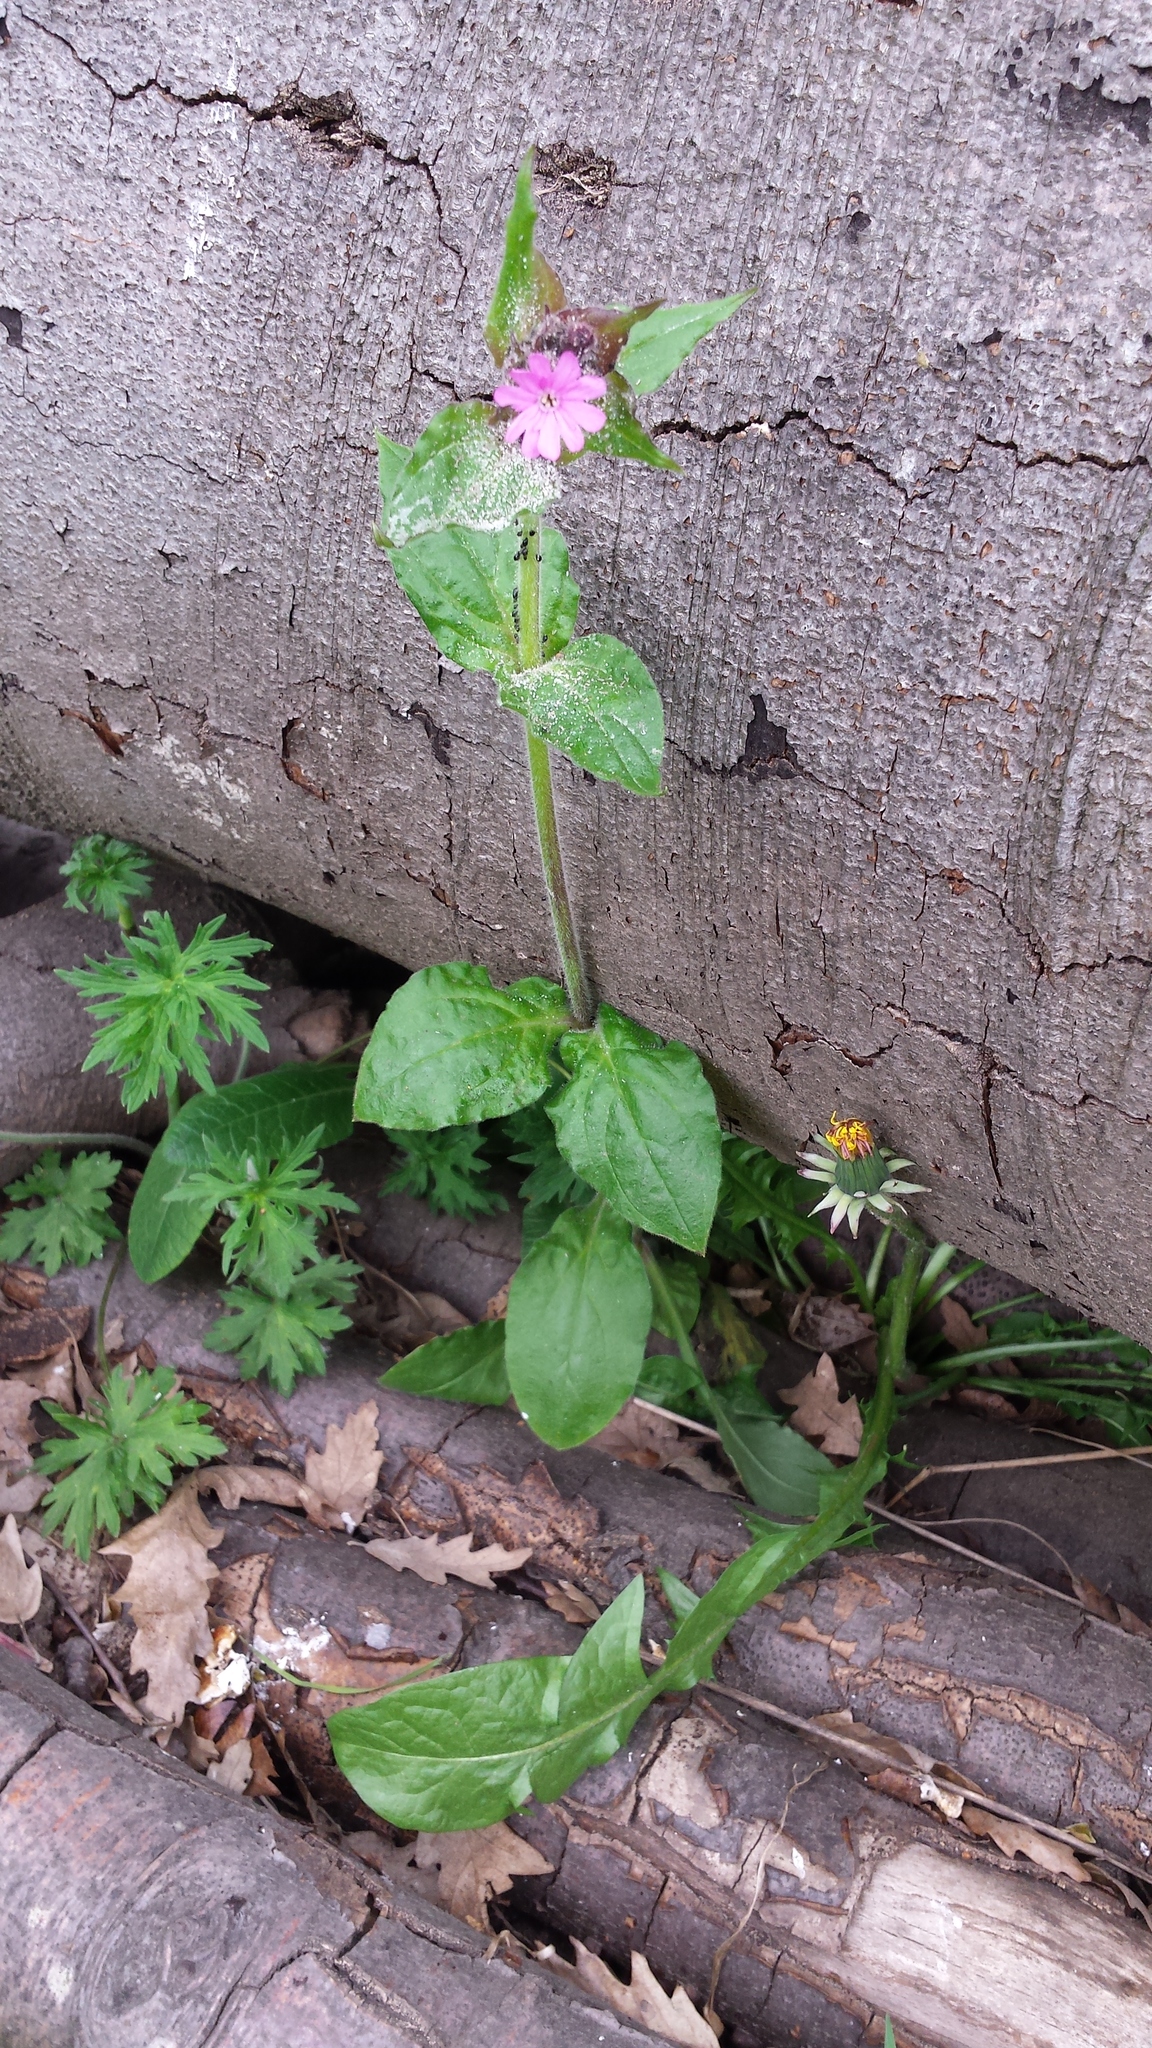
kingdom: Plantae
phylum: Tracheophyta
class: Magnoliopsida
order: Caryophyllales
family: Caryophyllaceae
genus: Silene
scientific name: Silene dioica
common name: Red campion
